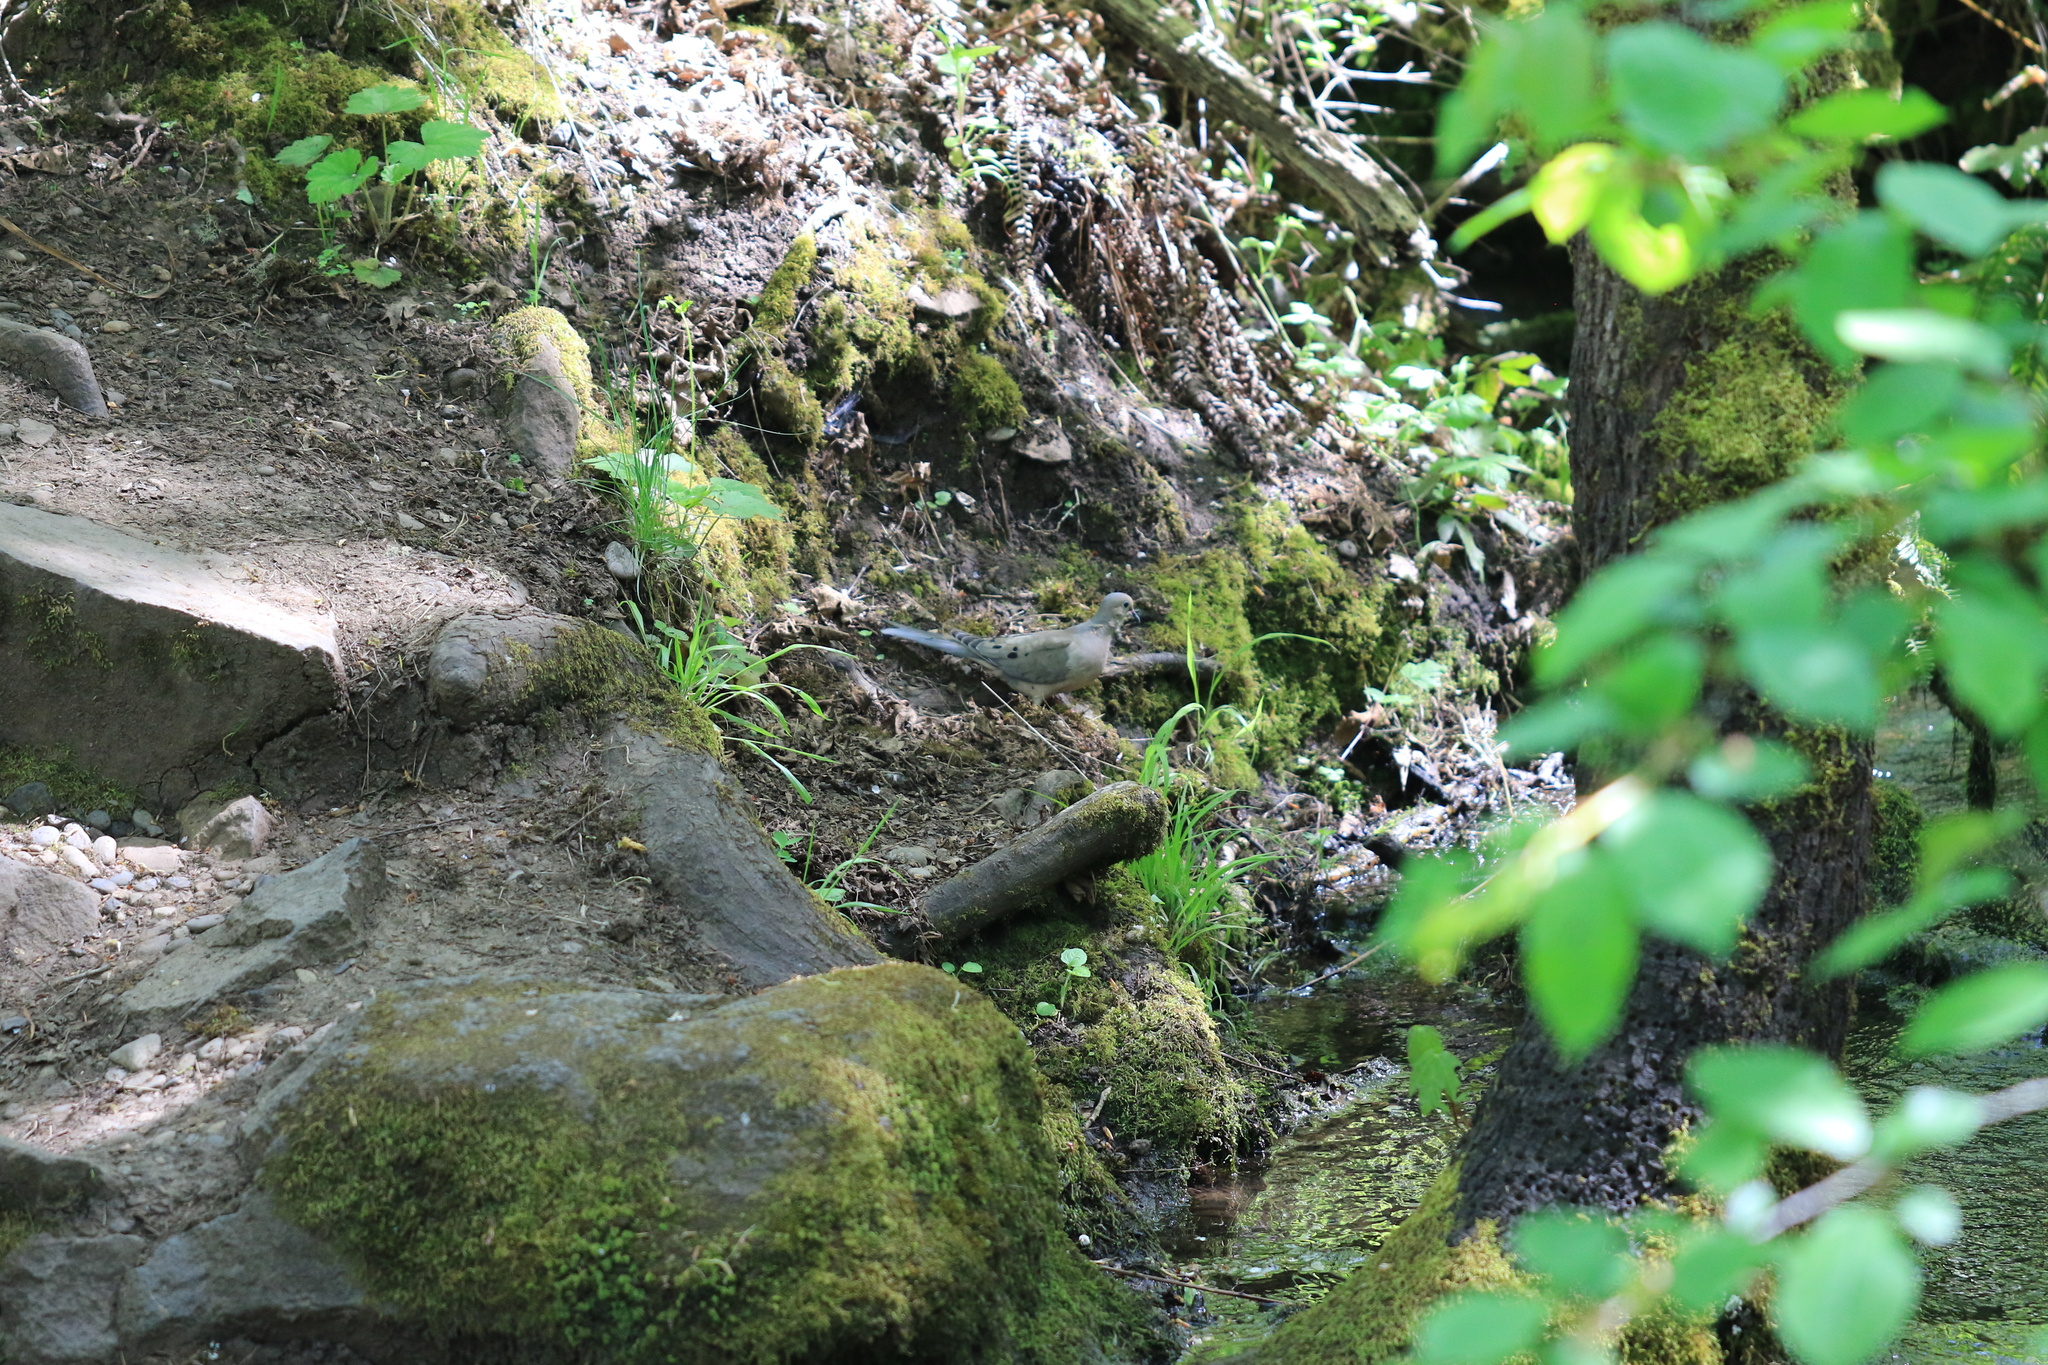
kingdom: Animalia
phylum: Chordata
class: Aves
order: Columbiformes
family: Columbidae
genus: Zenaida
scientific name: Zenaida macroura
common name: Mourning dove
